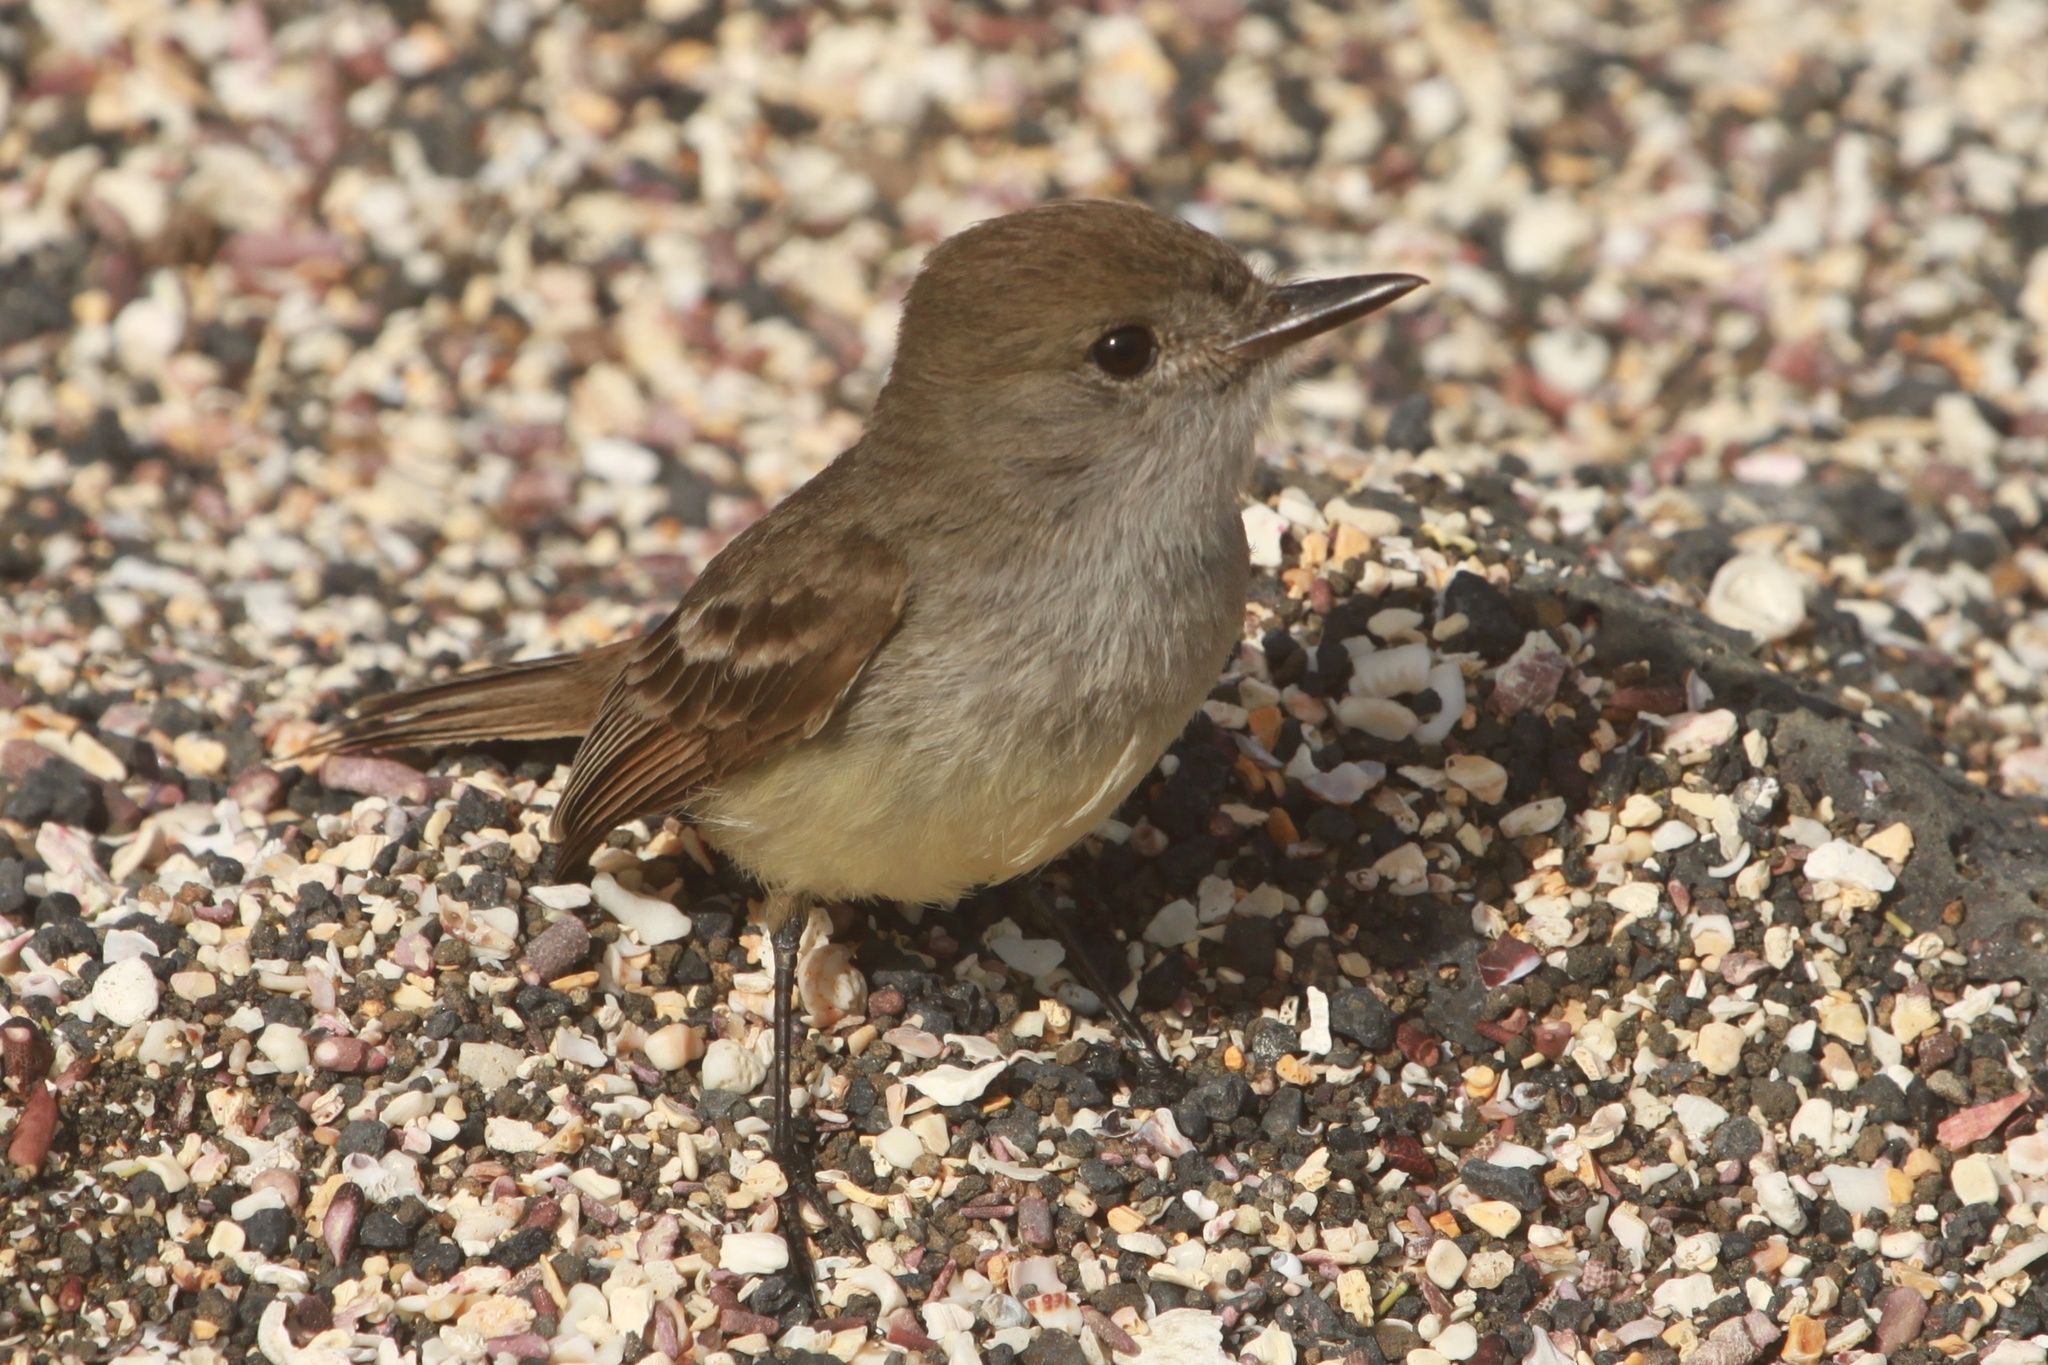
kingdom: Animalia
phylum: Chordata
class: Aves
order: Passeriformes
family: Tyrannidae
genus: Myiarchus
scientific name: Myiarchus magnirostris
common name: Galapagos flycatcher
